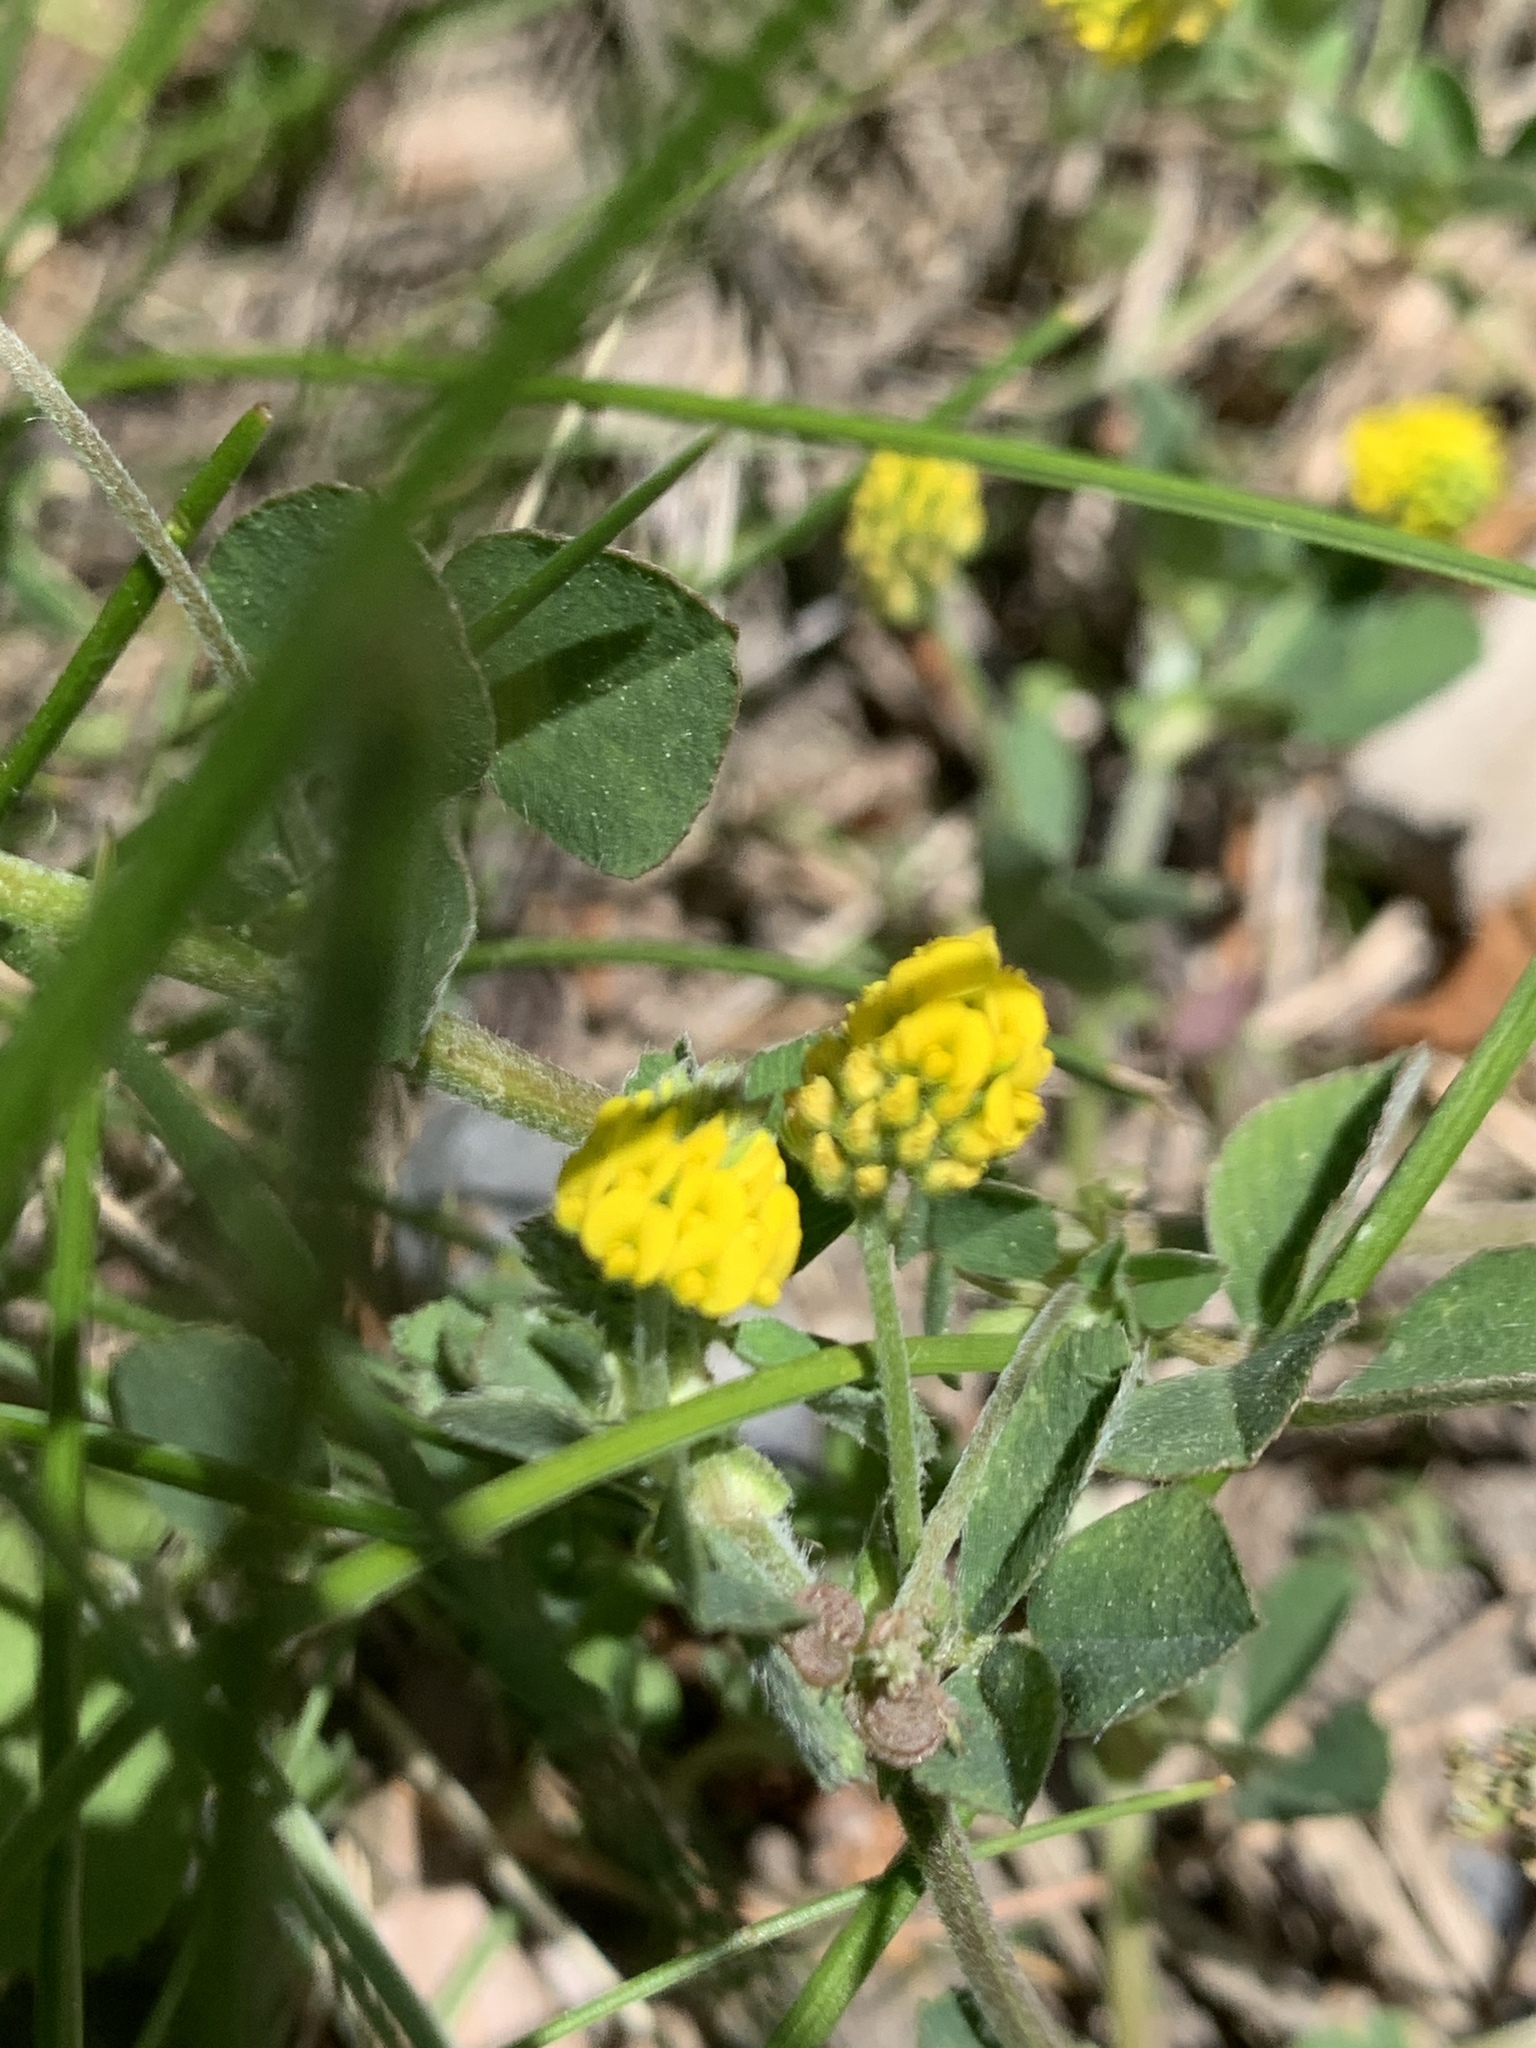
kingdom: Plantae
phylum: Tracheophyta
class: Magnoliopsida
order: Fabales
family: Fabaceae
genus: Medicago
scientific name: Medicago lupulina
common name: Black medick
